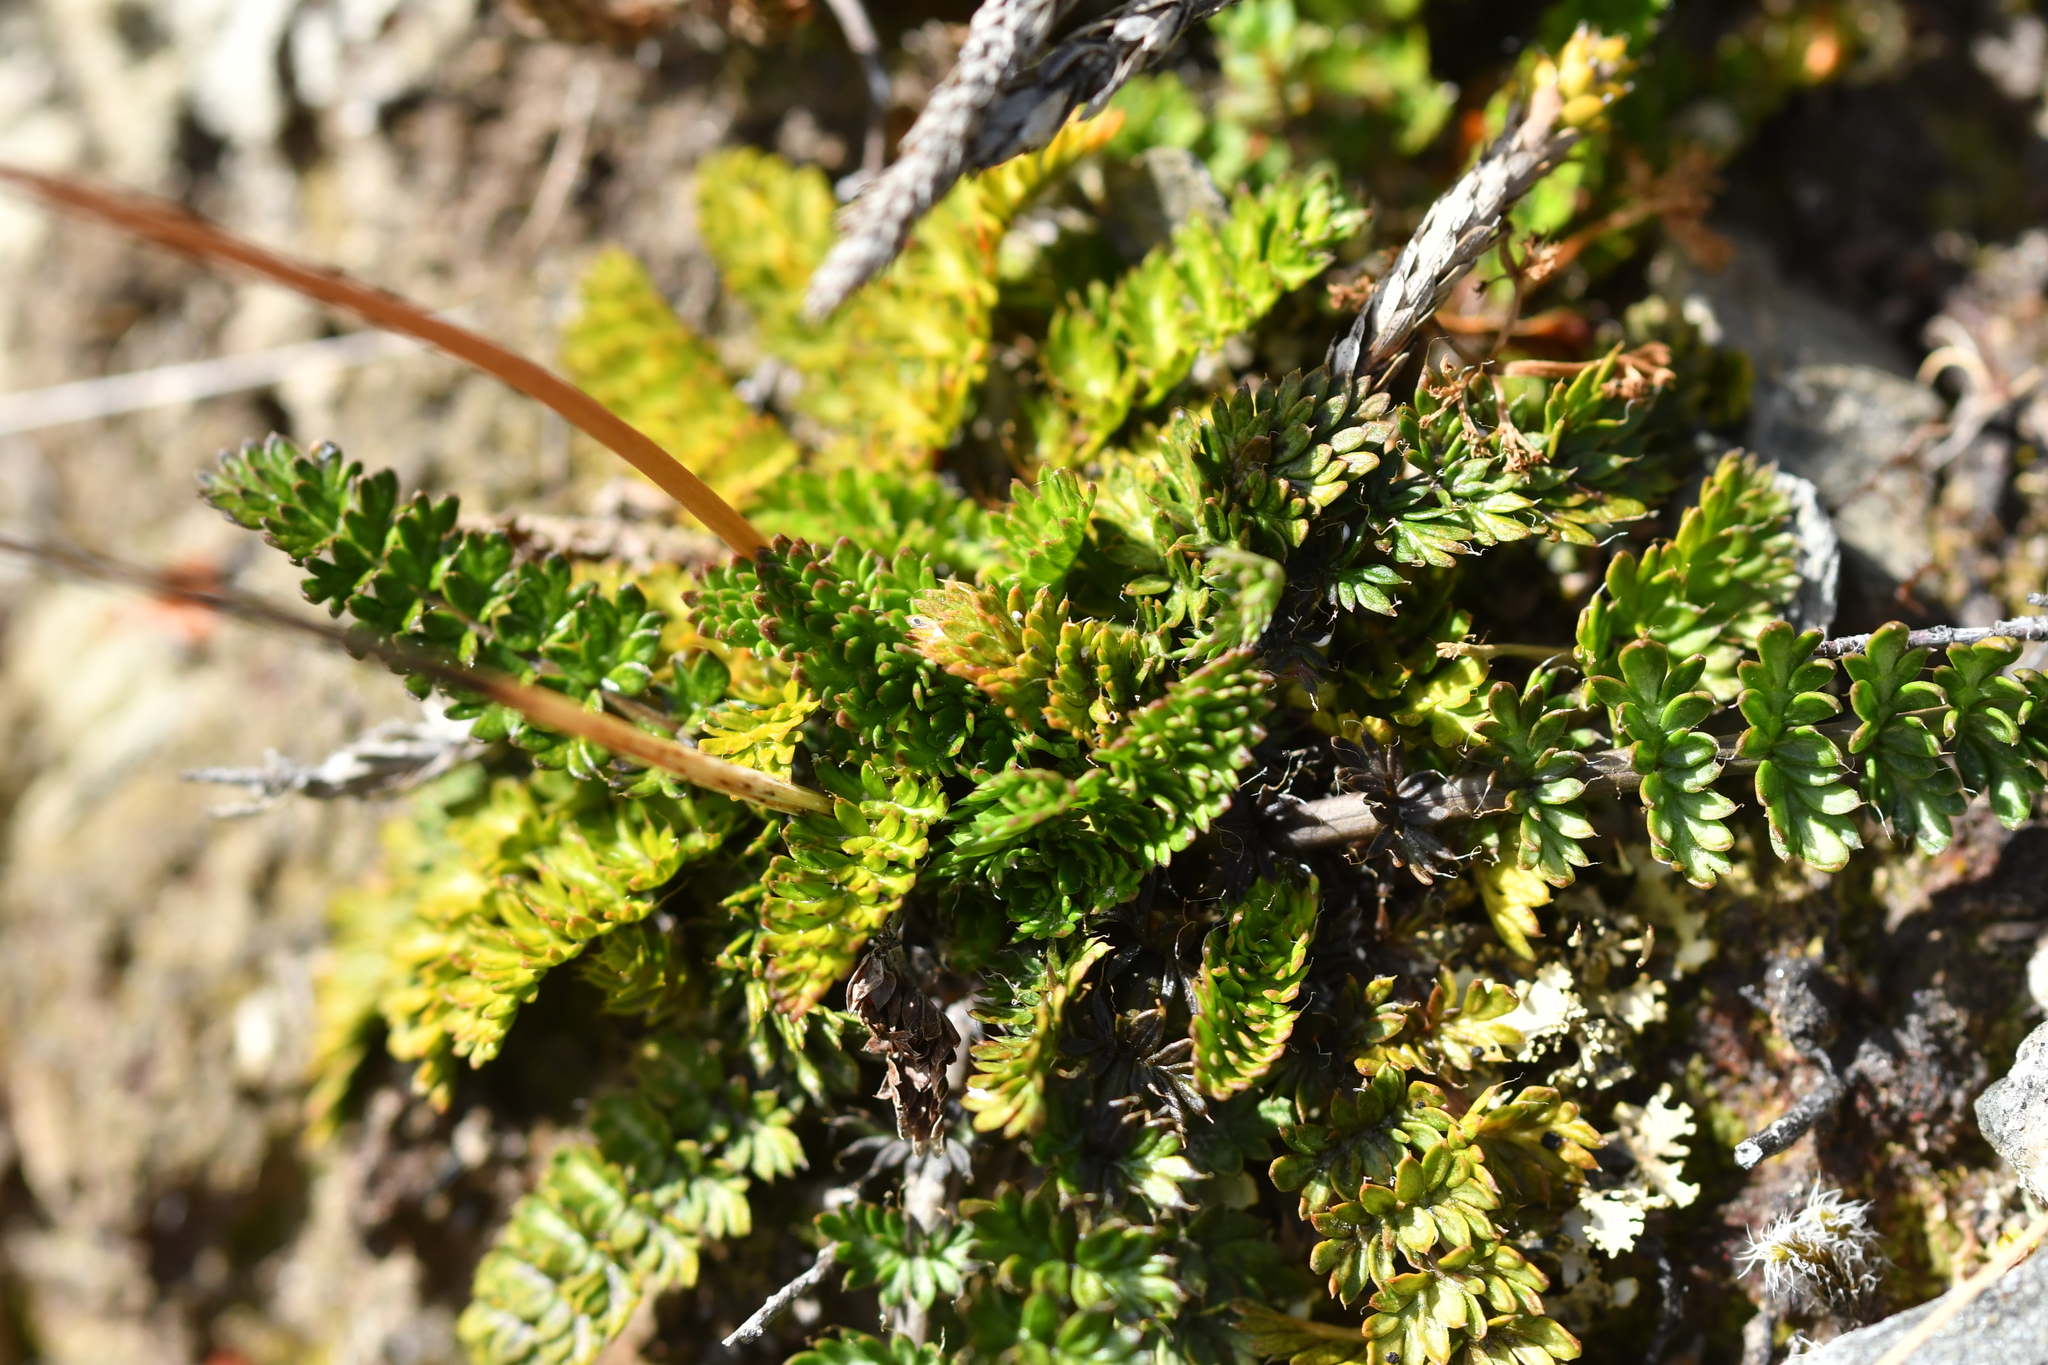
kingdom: Plantae
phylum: Tracheophyta
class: Magnoliopsida
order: Apiales
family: Apiaceae
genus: Anisotome
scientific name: Anisotome flexuosa
